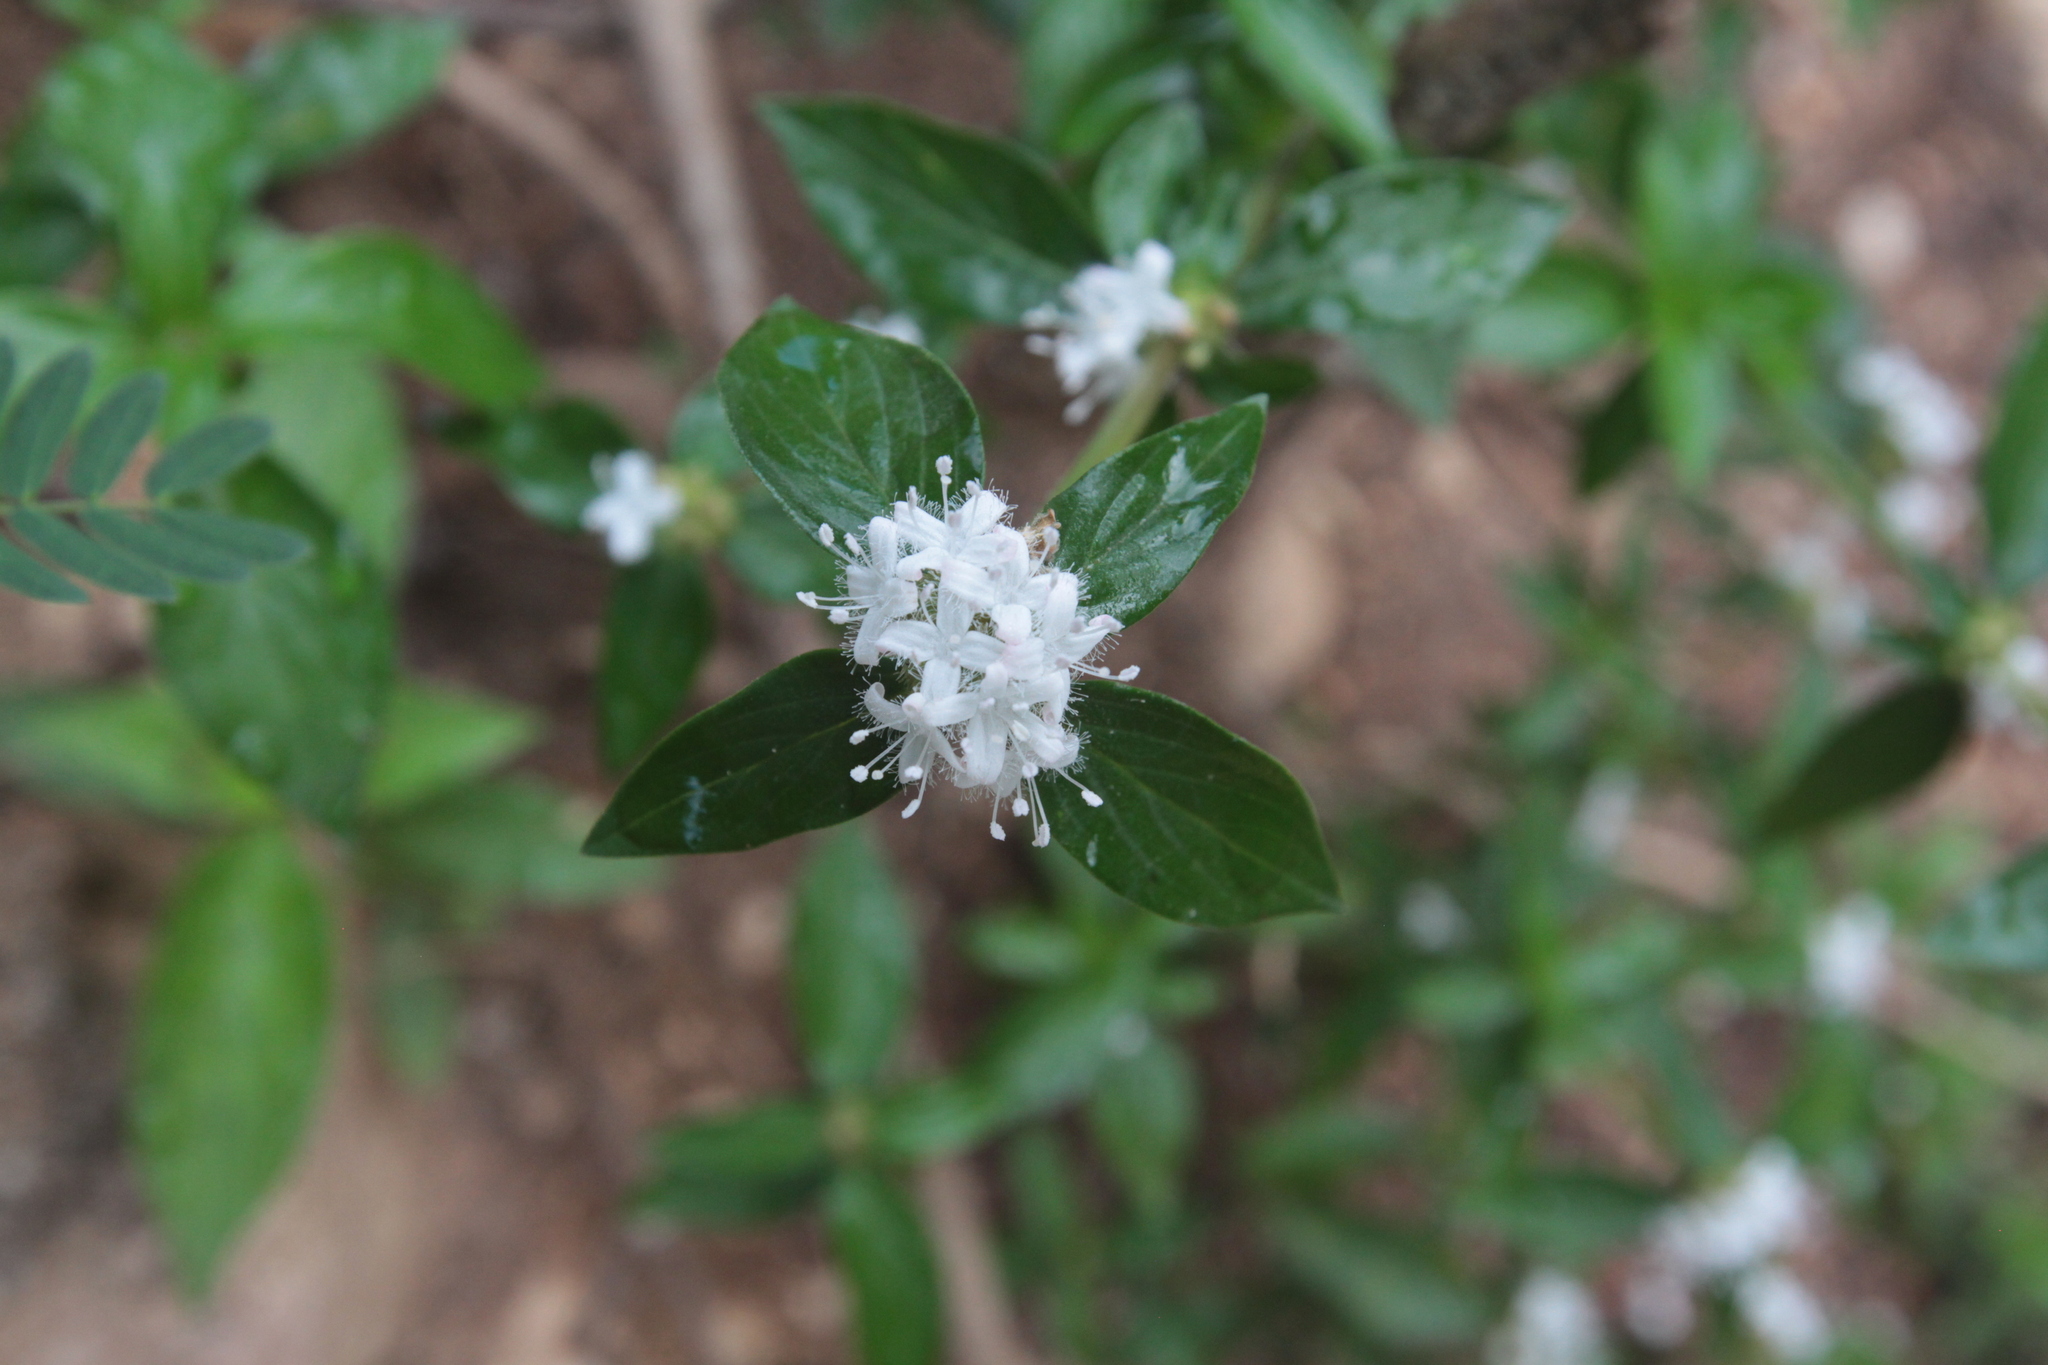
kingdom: Plantae
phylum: Tracheophyta
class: Magnoliopsida
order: Gentianales
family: Rubiaceae
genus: Spermacoce
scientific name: Spermacoce remota
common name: Woodland false buttonweed
